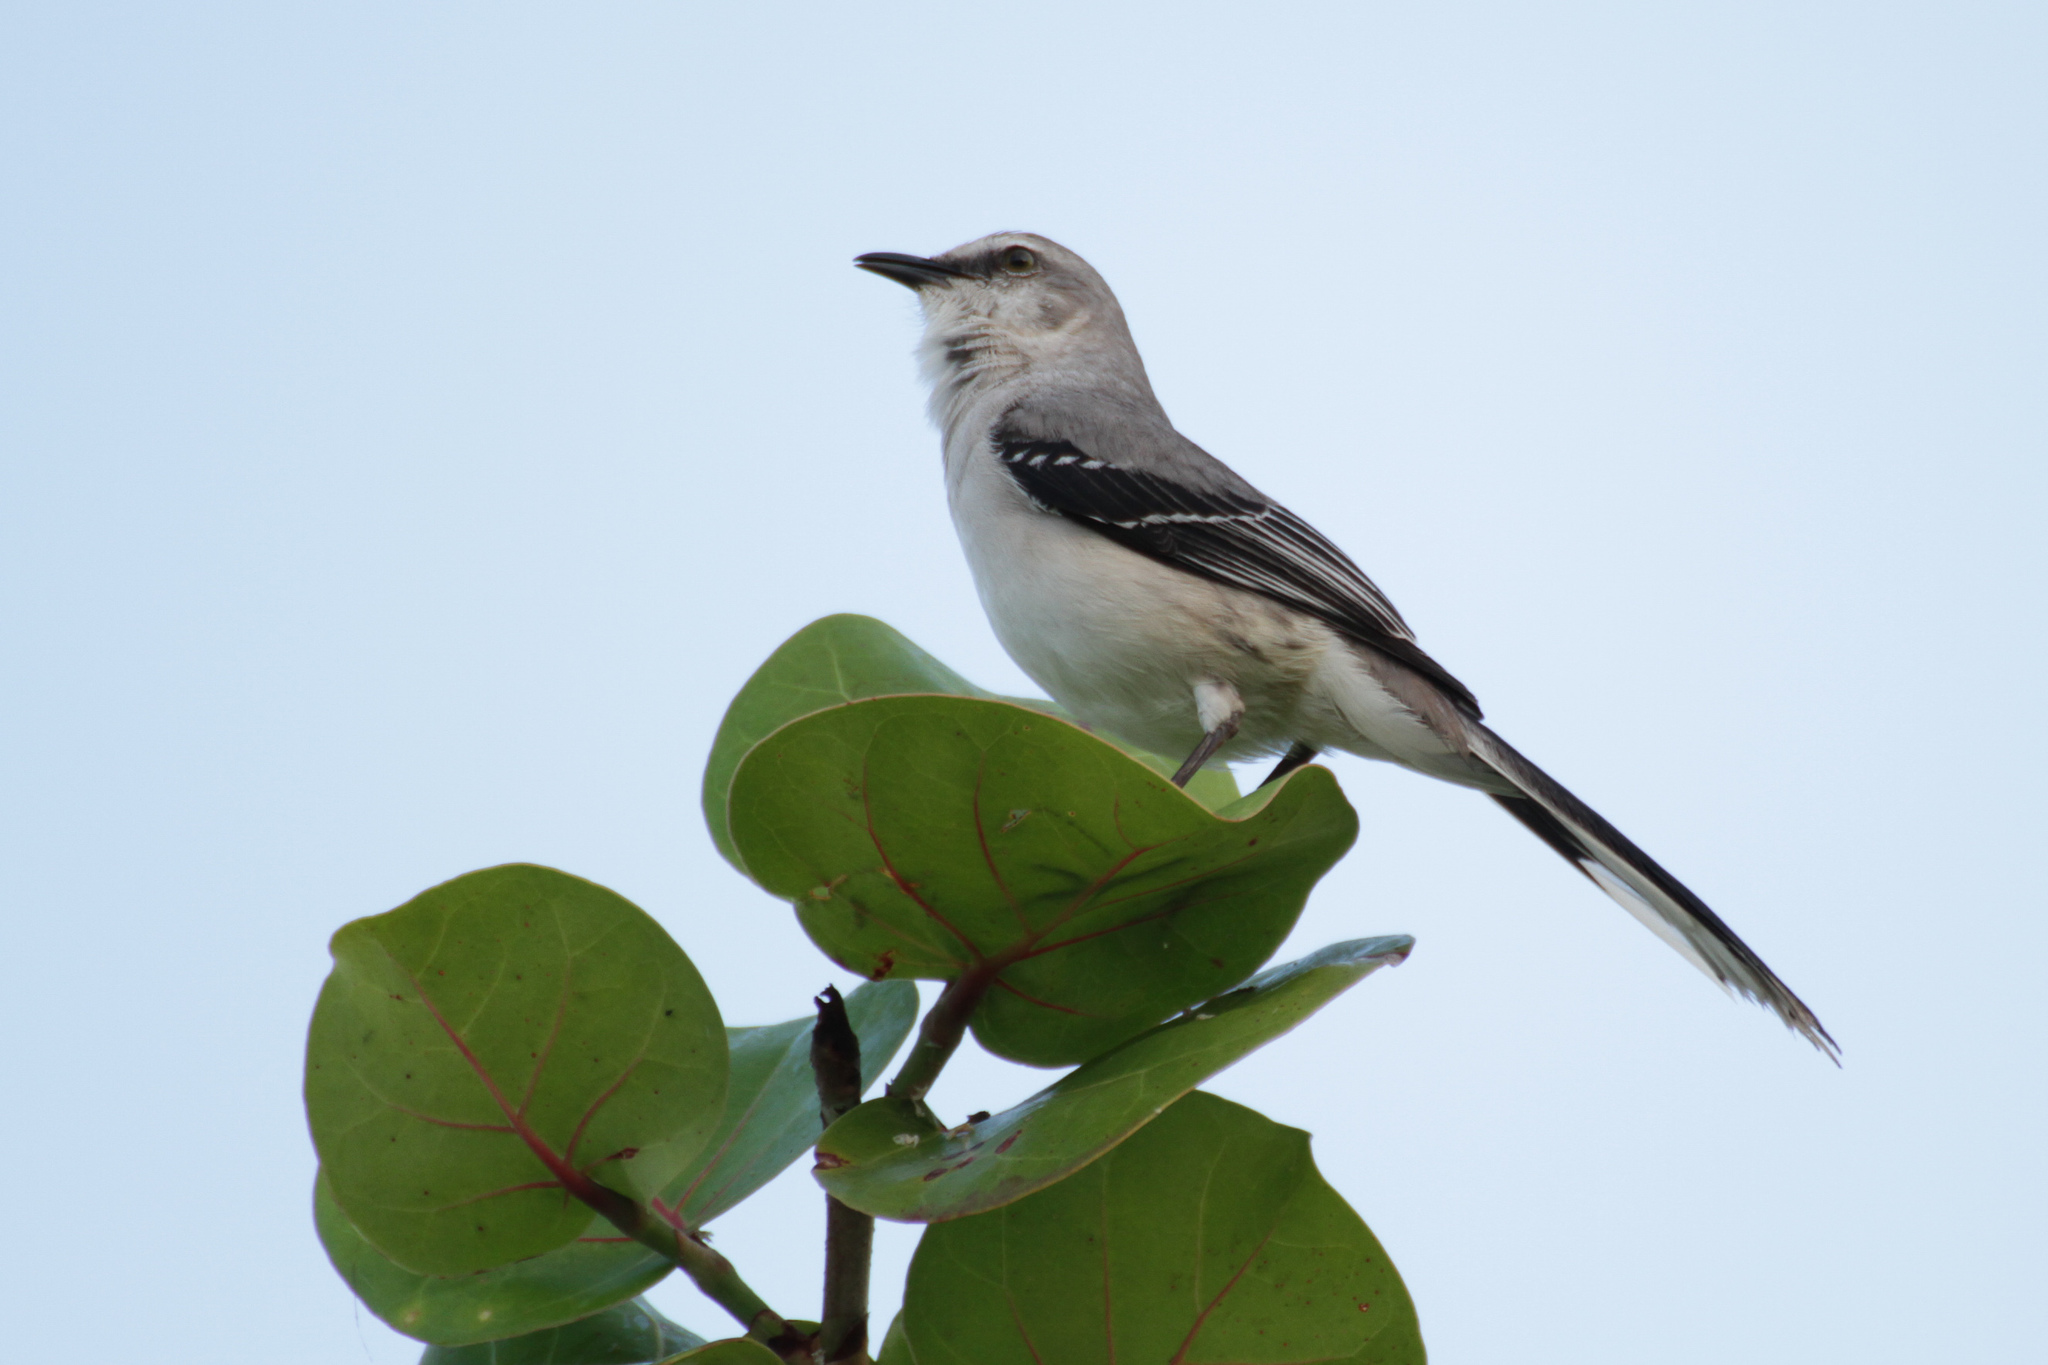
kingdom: Animalia
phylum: Chordata
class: Aves
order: Passeriformes
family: Mimidae
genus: Mimus
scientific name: Mimus gilvus
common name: Tropical mockingbird
